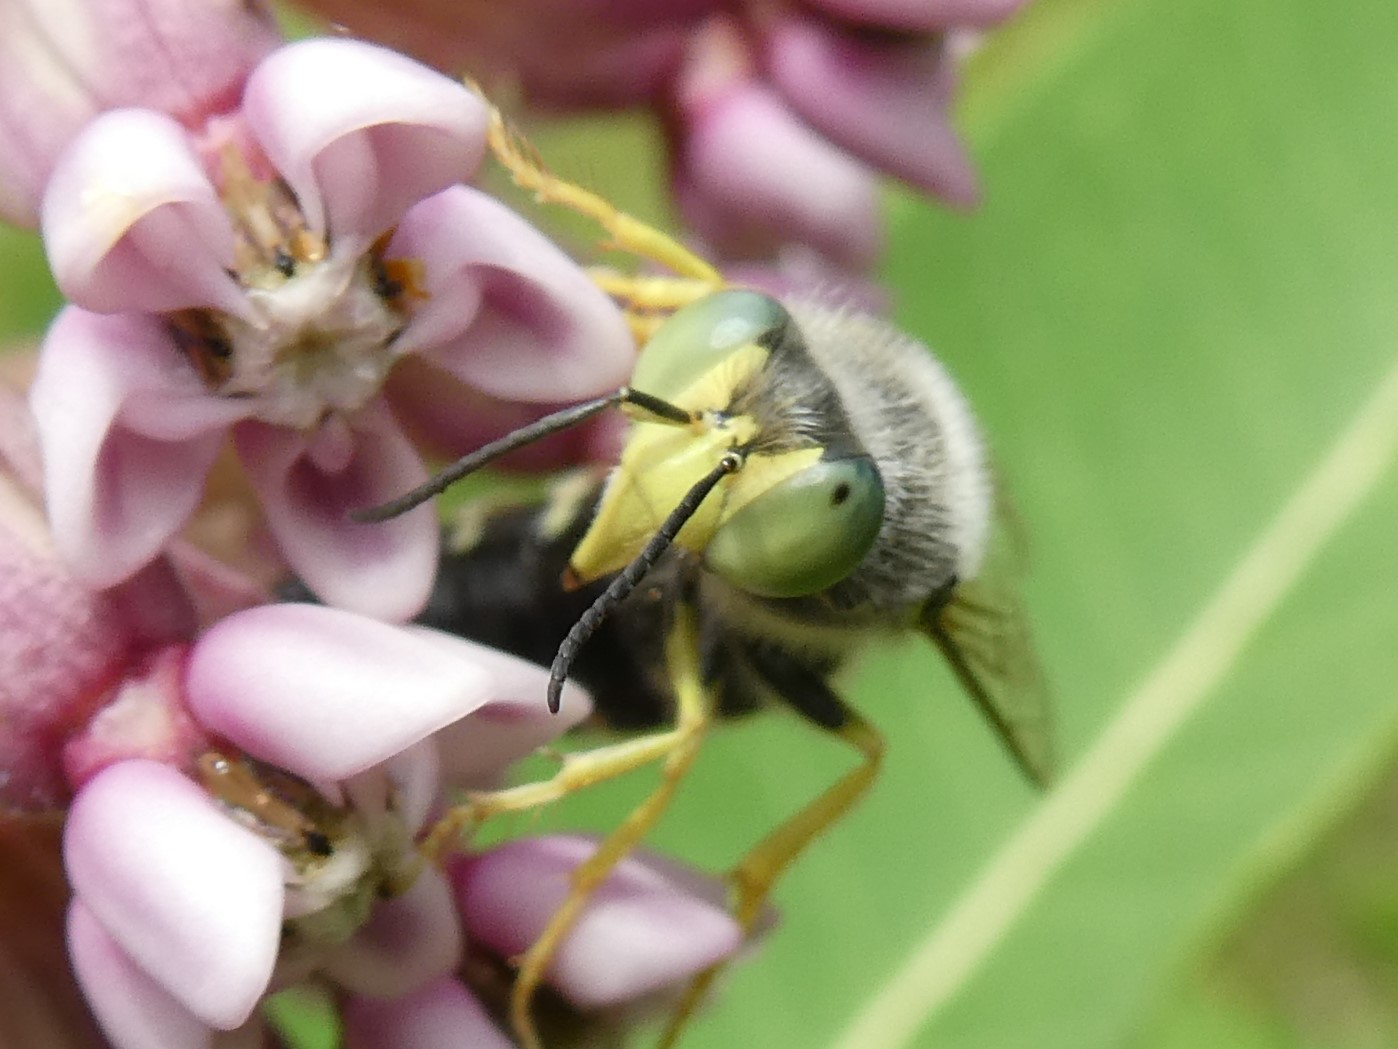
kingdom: Animalia
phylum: Arthropoda
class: Insecta
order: Hymenoptera
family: Crabronidae
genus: Bembix
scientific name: Bembix americana
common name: American sand wasp
